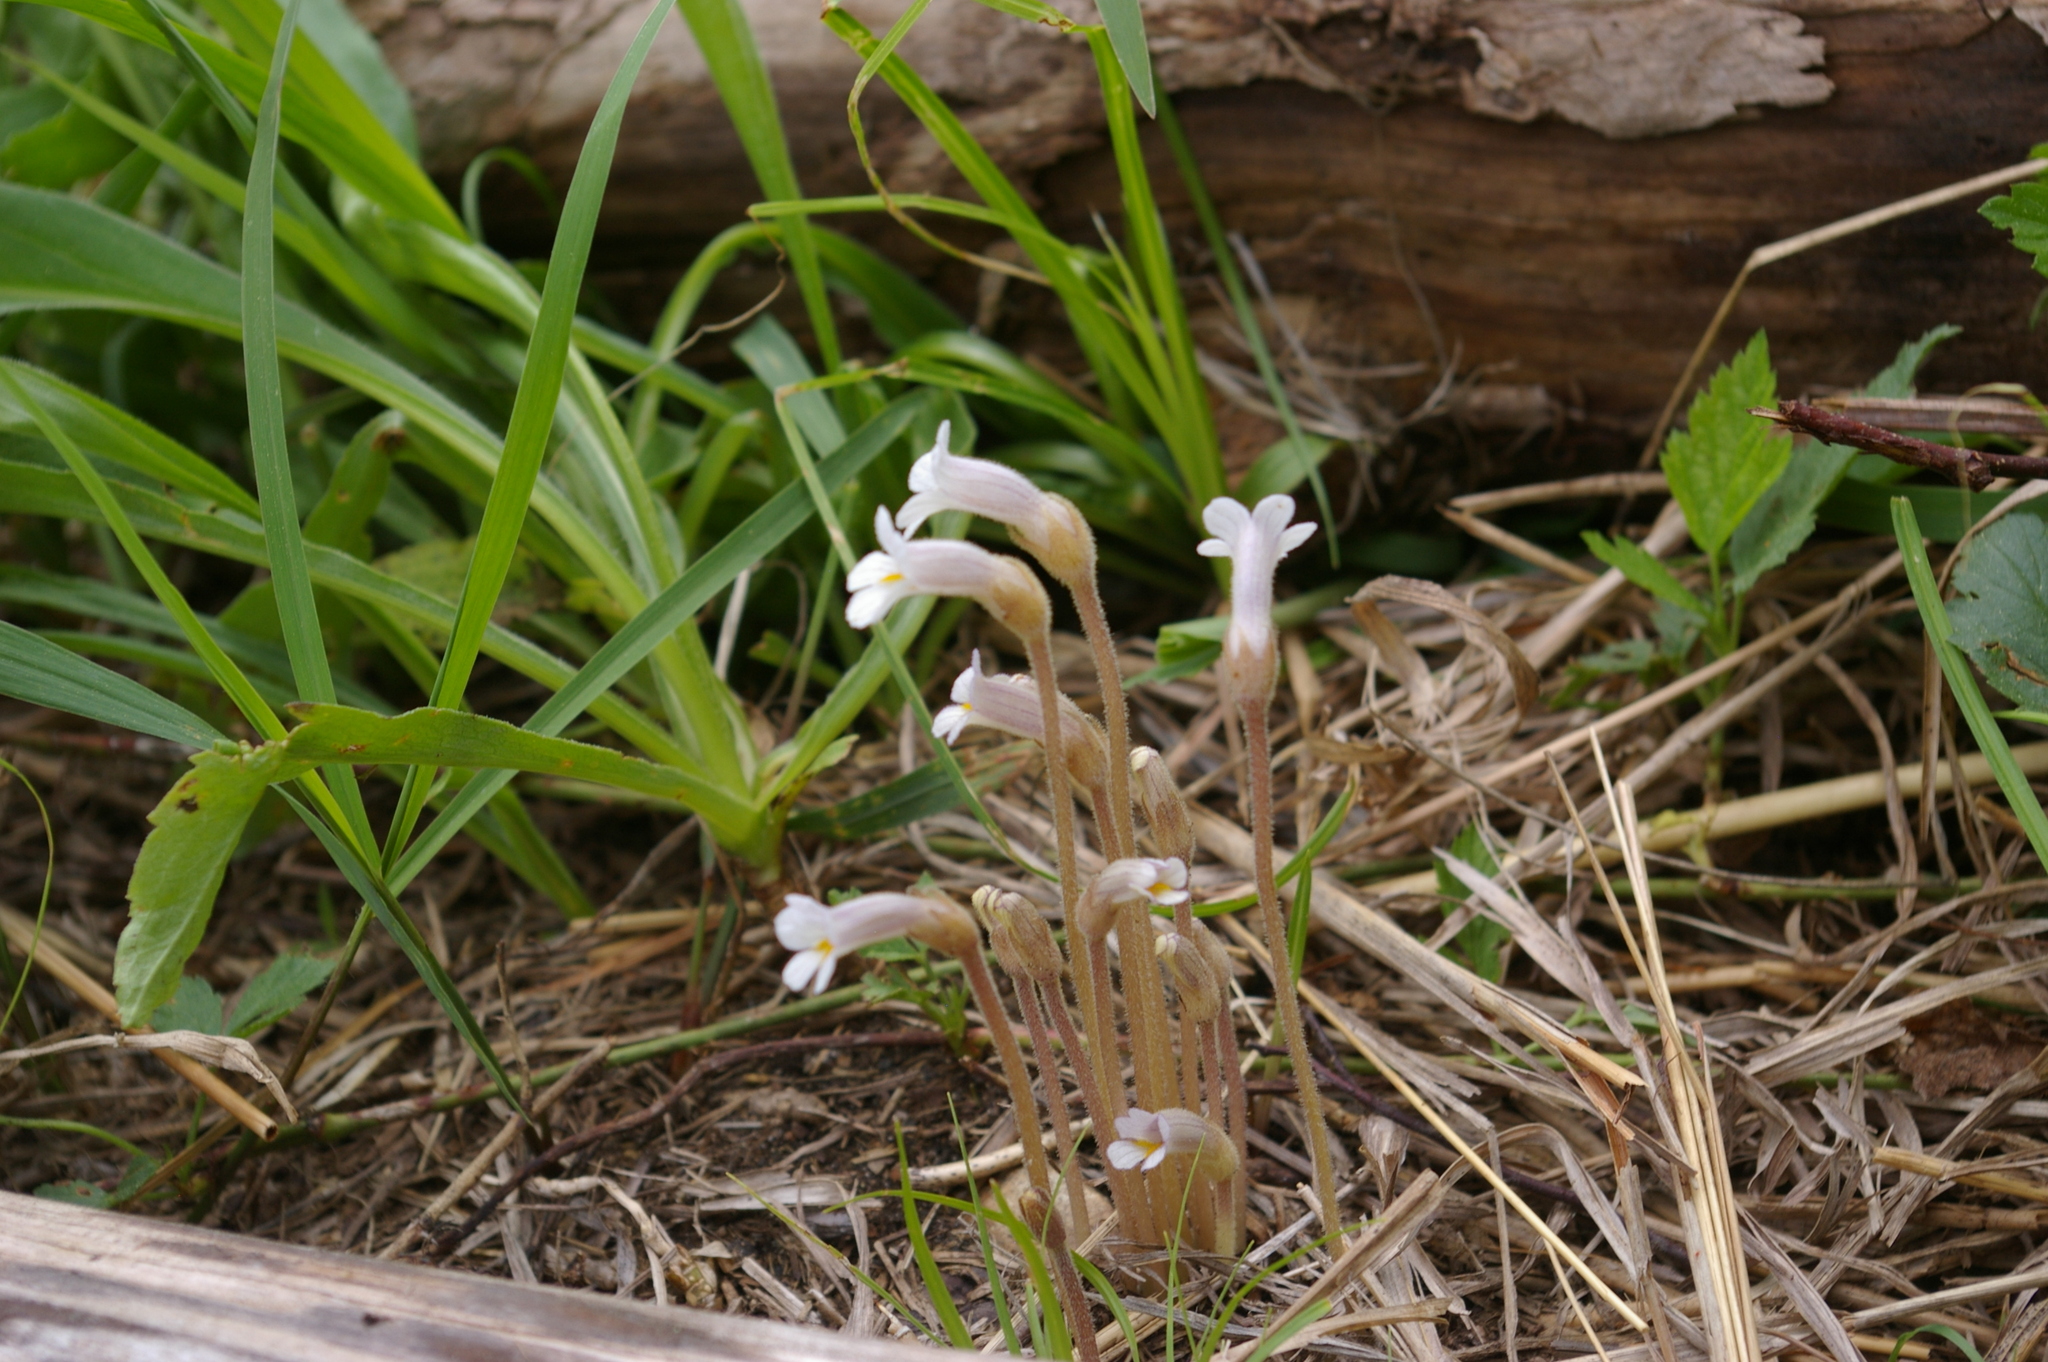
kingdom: Plantae
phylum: Tracheophyta
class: Magnoliopsida
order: Lamiales
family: Orobanchaceae
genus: Aphyllon
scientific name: Aphyllon uniflorum
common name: One-flowered broomrape
